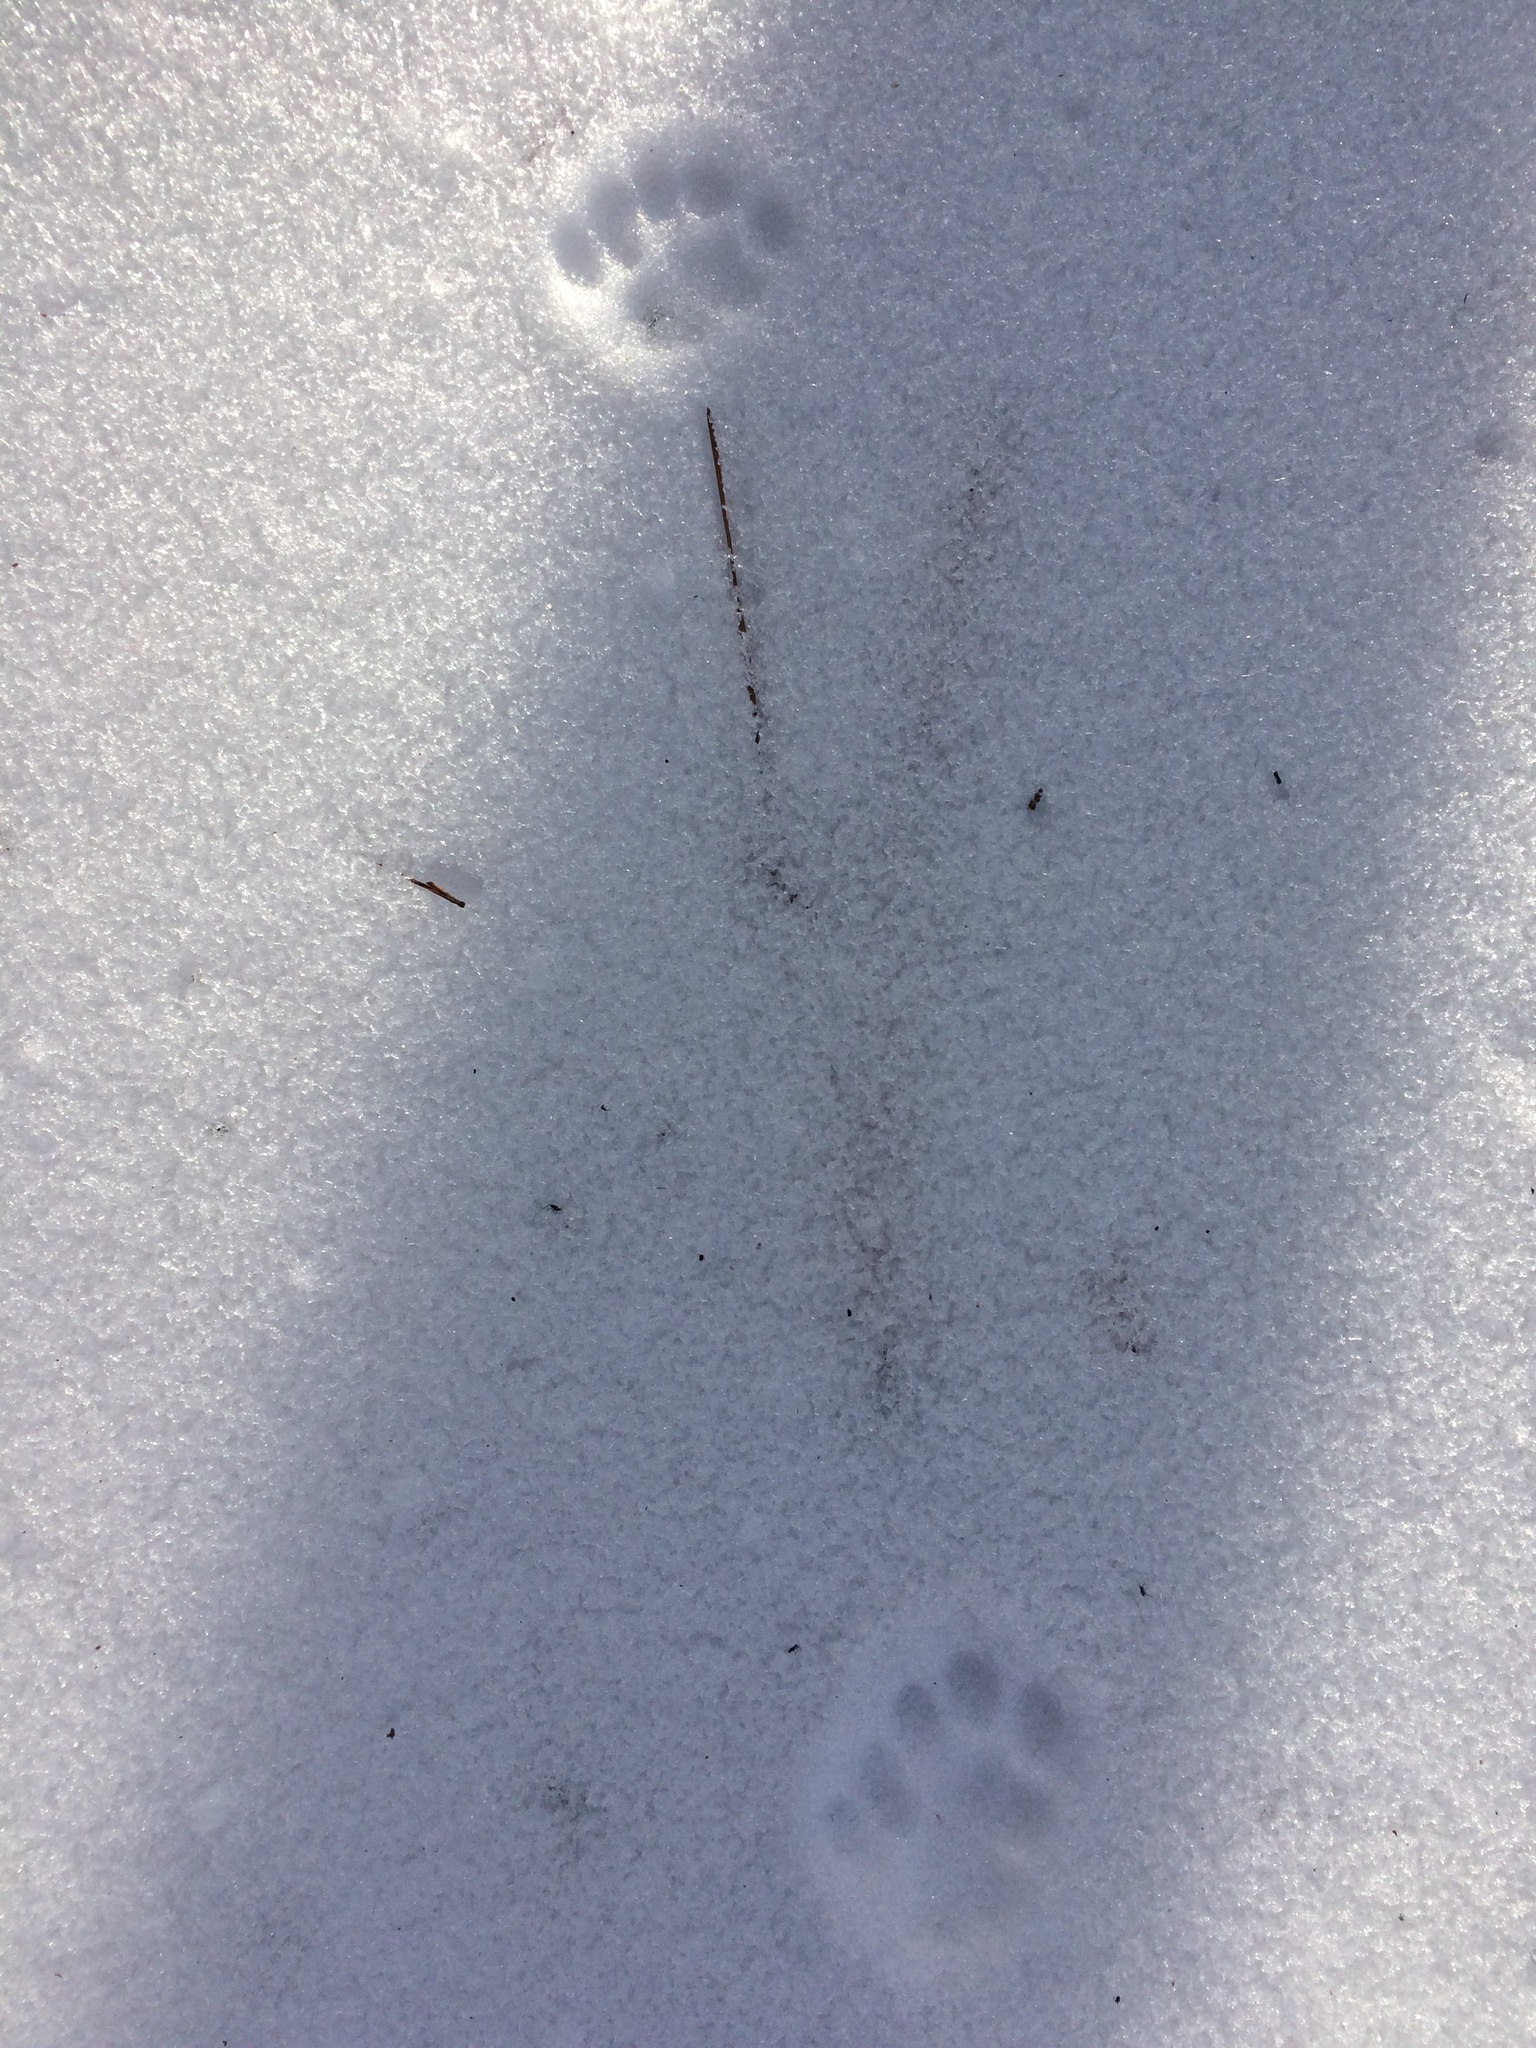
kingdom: Animalia
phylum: Chordata
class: Mammalia
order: Carnivora
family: Felidae
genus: Felis
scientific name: Felis catus
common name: Domestic cat
